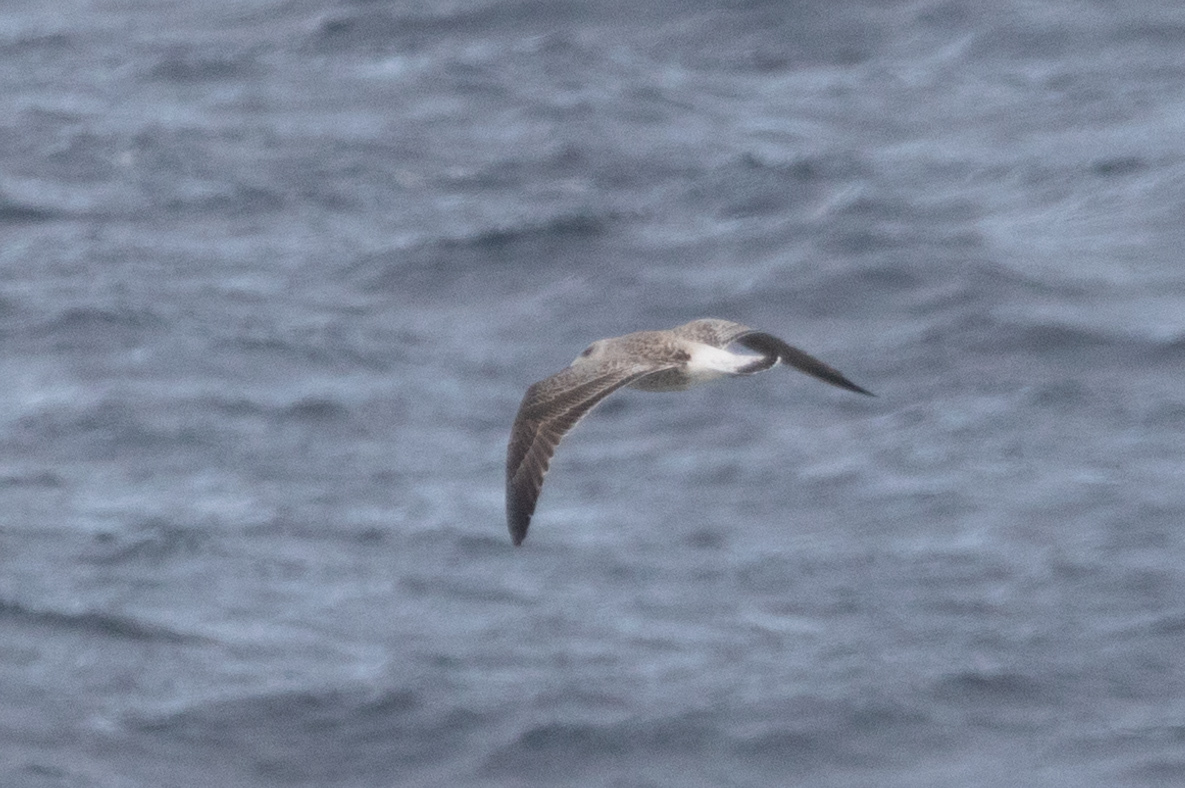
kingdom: Animalia
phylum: Chordata
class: Aves
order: Charadriiformes
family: Laridae
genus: Larus
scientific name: Larus marinus
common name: Great black-backed gull
